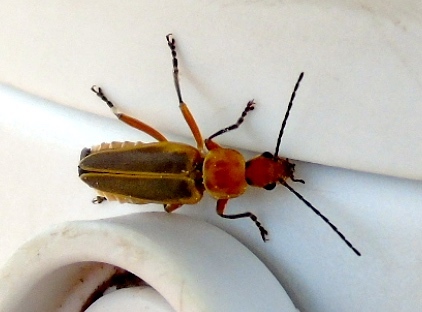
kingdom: Animalia
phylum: Arthropoda
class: Insecta
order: Coleoptera
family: Cantharidae
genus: Chauliognathus
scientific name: Chauliognathus
